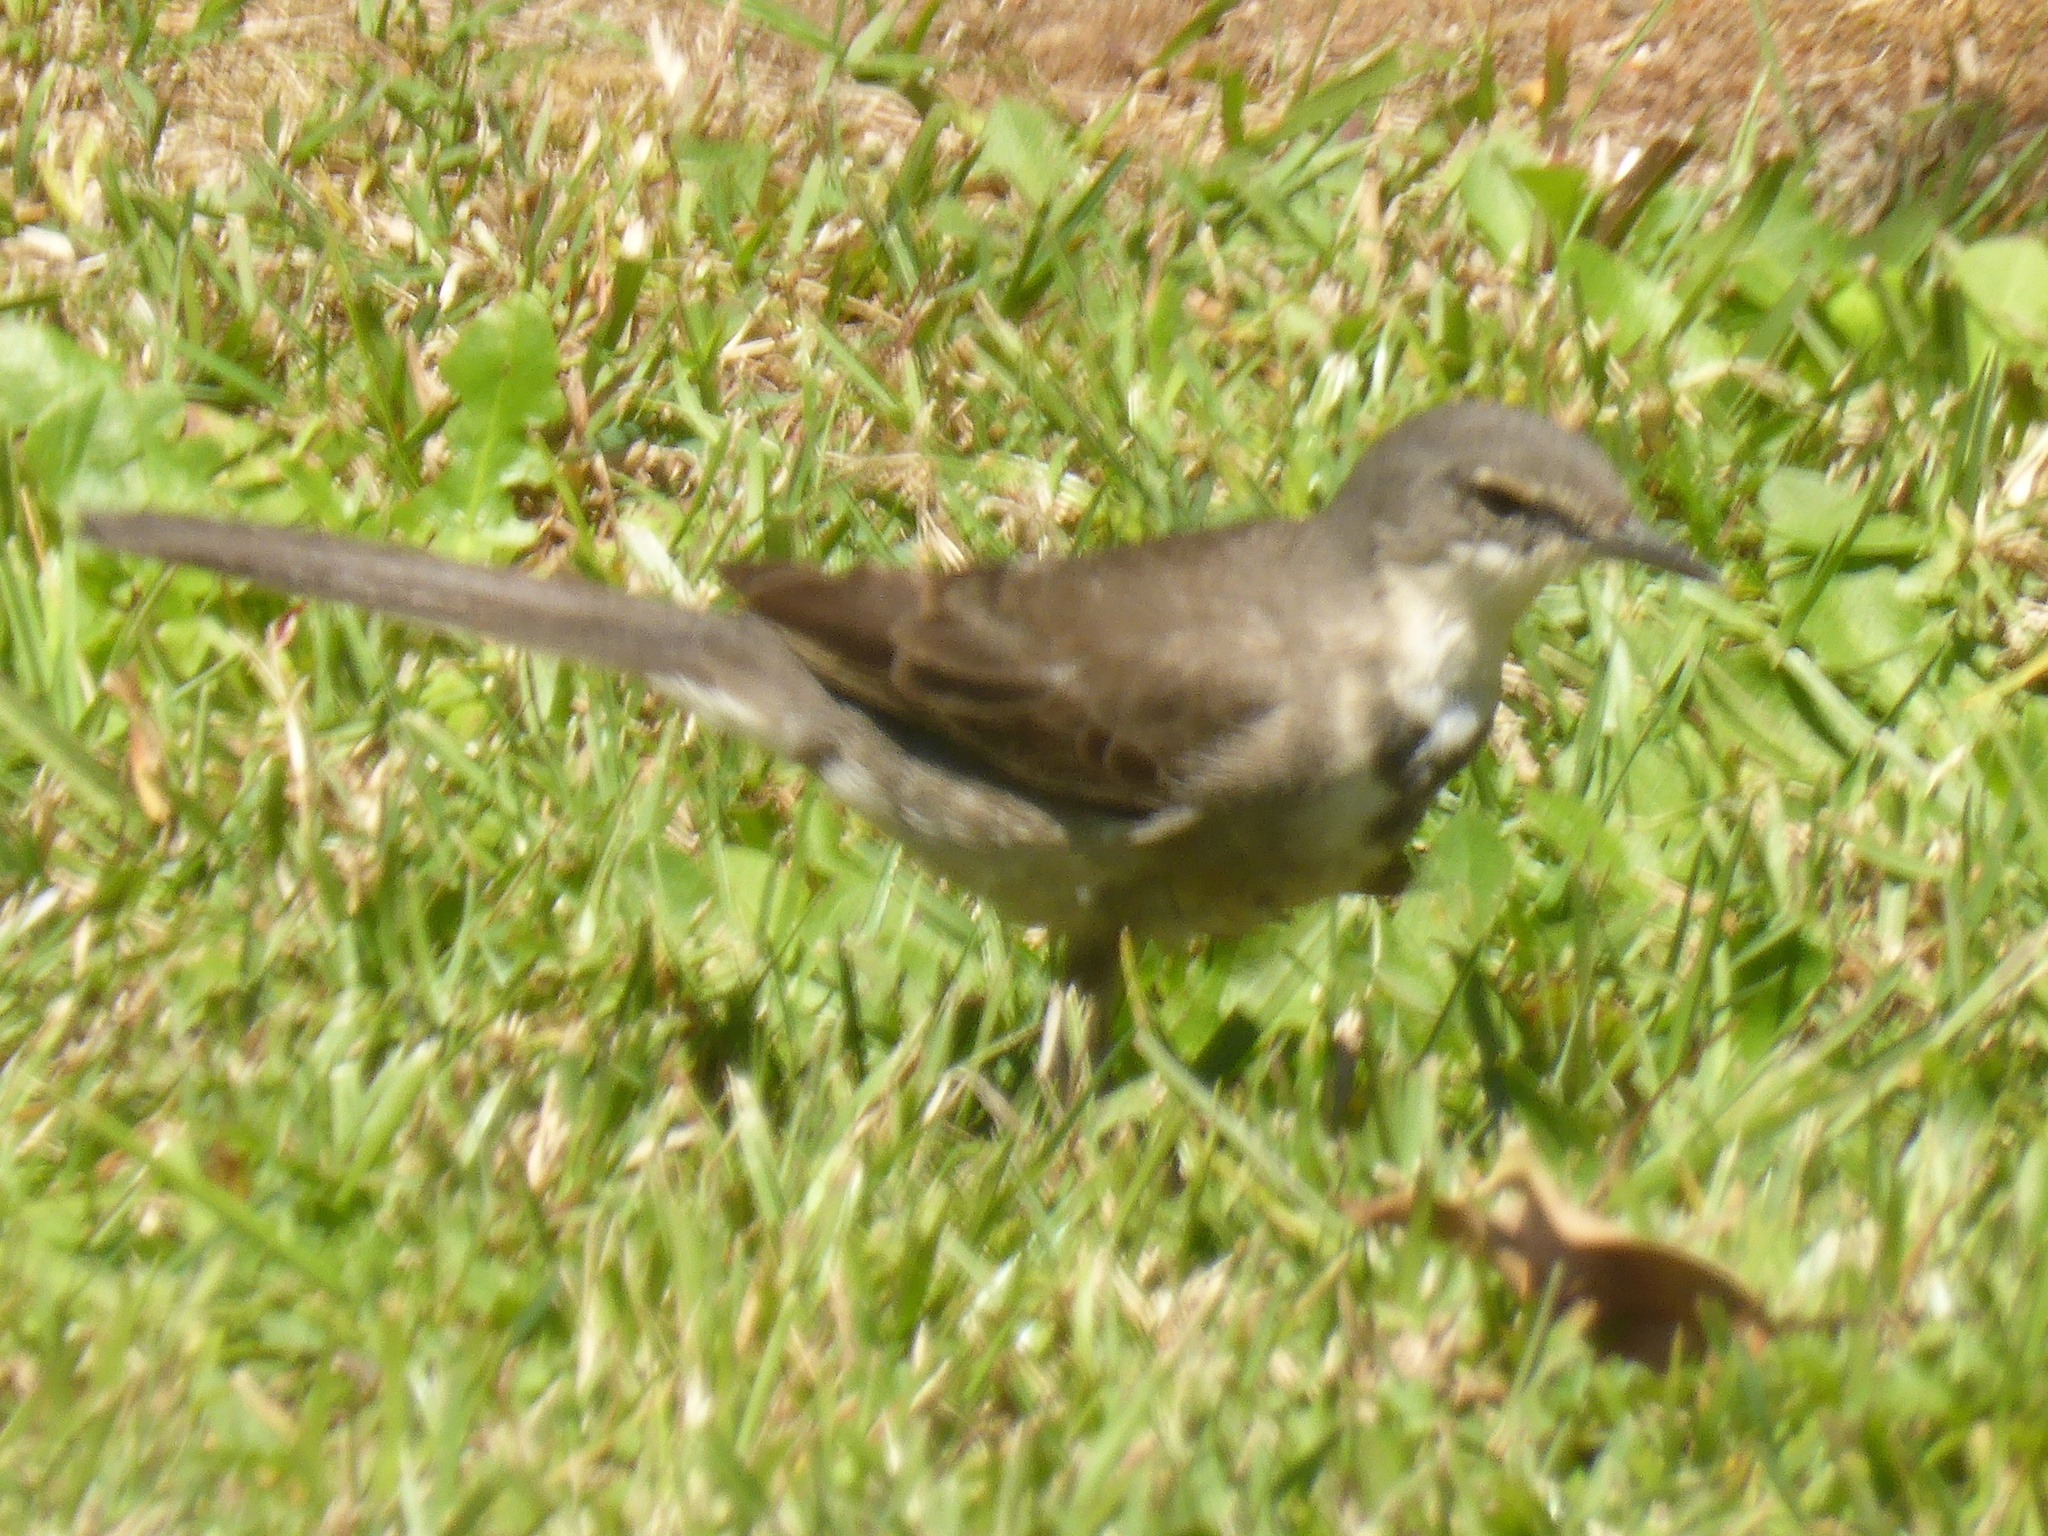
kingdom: Animalia
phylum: Chordata
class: Aves
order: Passeriformes
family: Motacillidae
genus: Motacilla
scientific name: Motacilla capensis
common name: Cape wagtail
